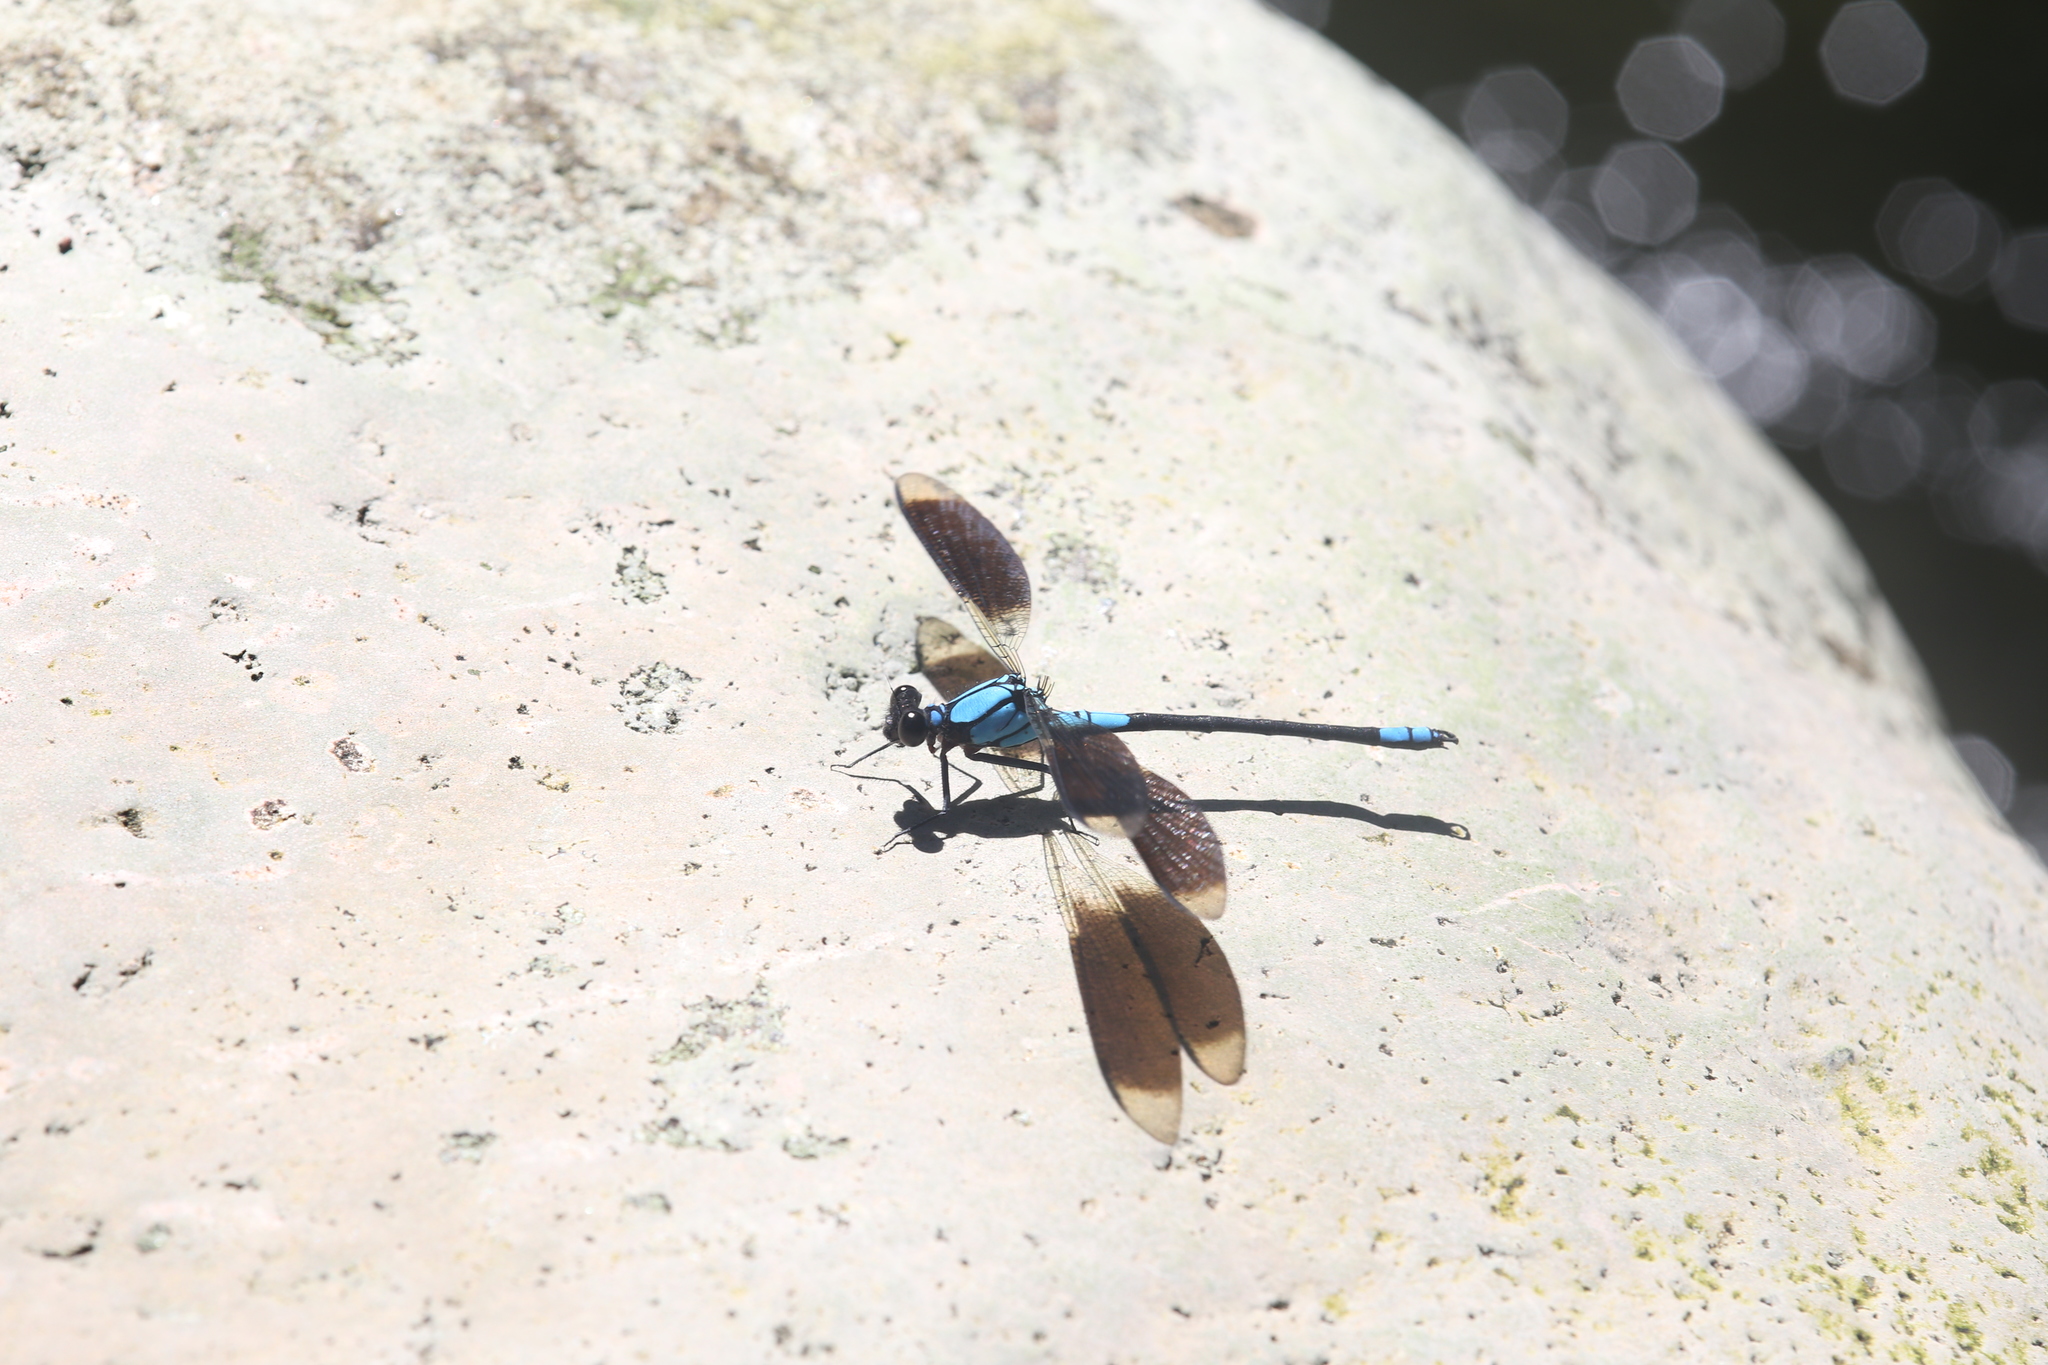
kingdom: Animalia
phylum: Arthropoda
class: Insecta
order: Odonata
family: Lestoideidae
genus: Diphlebia
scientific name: Diphlebia euphoeoides
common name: Tropical rockmaster
